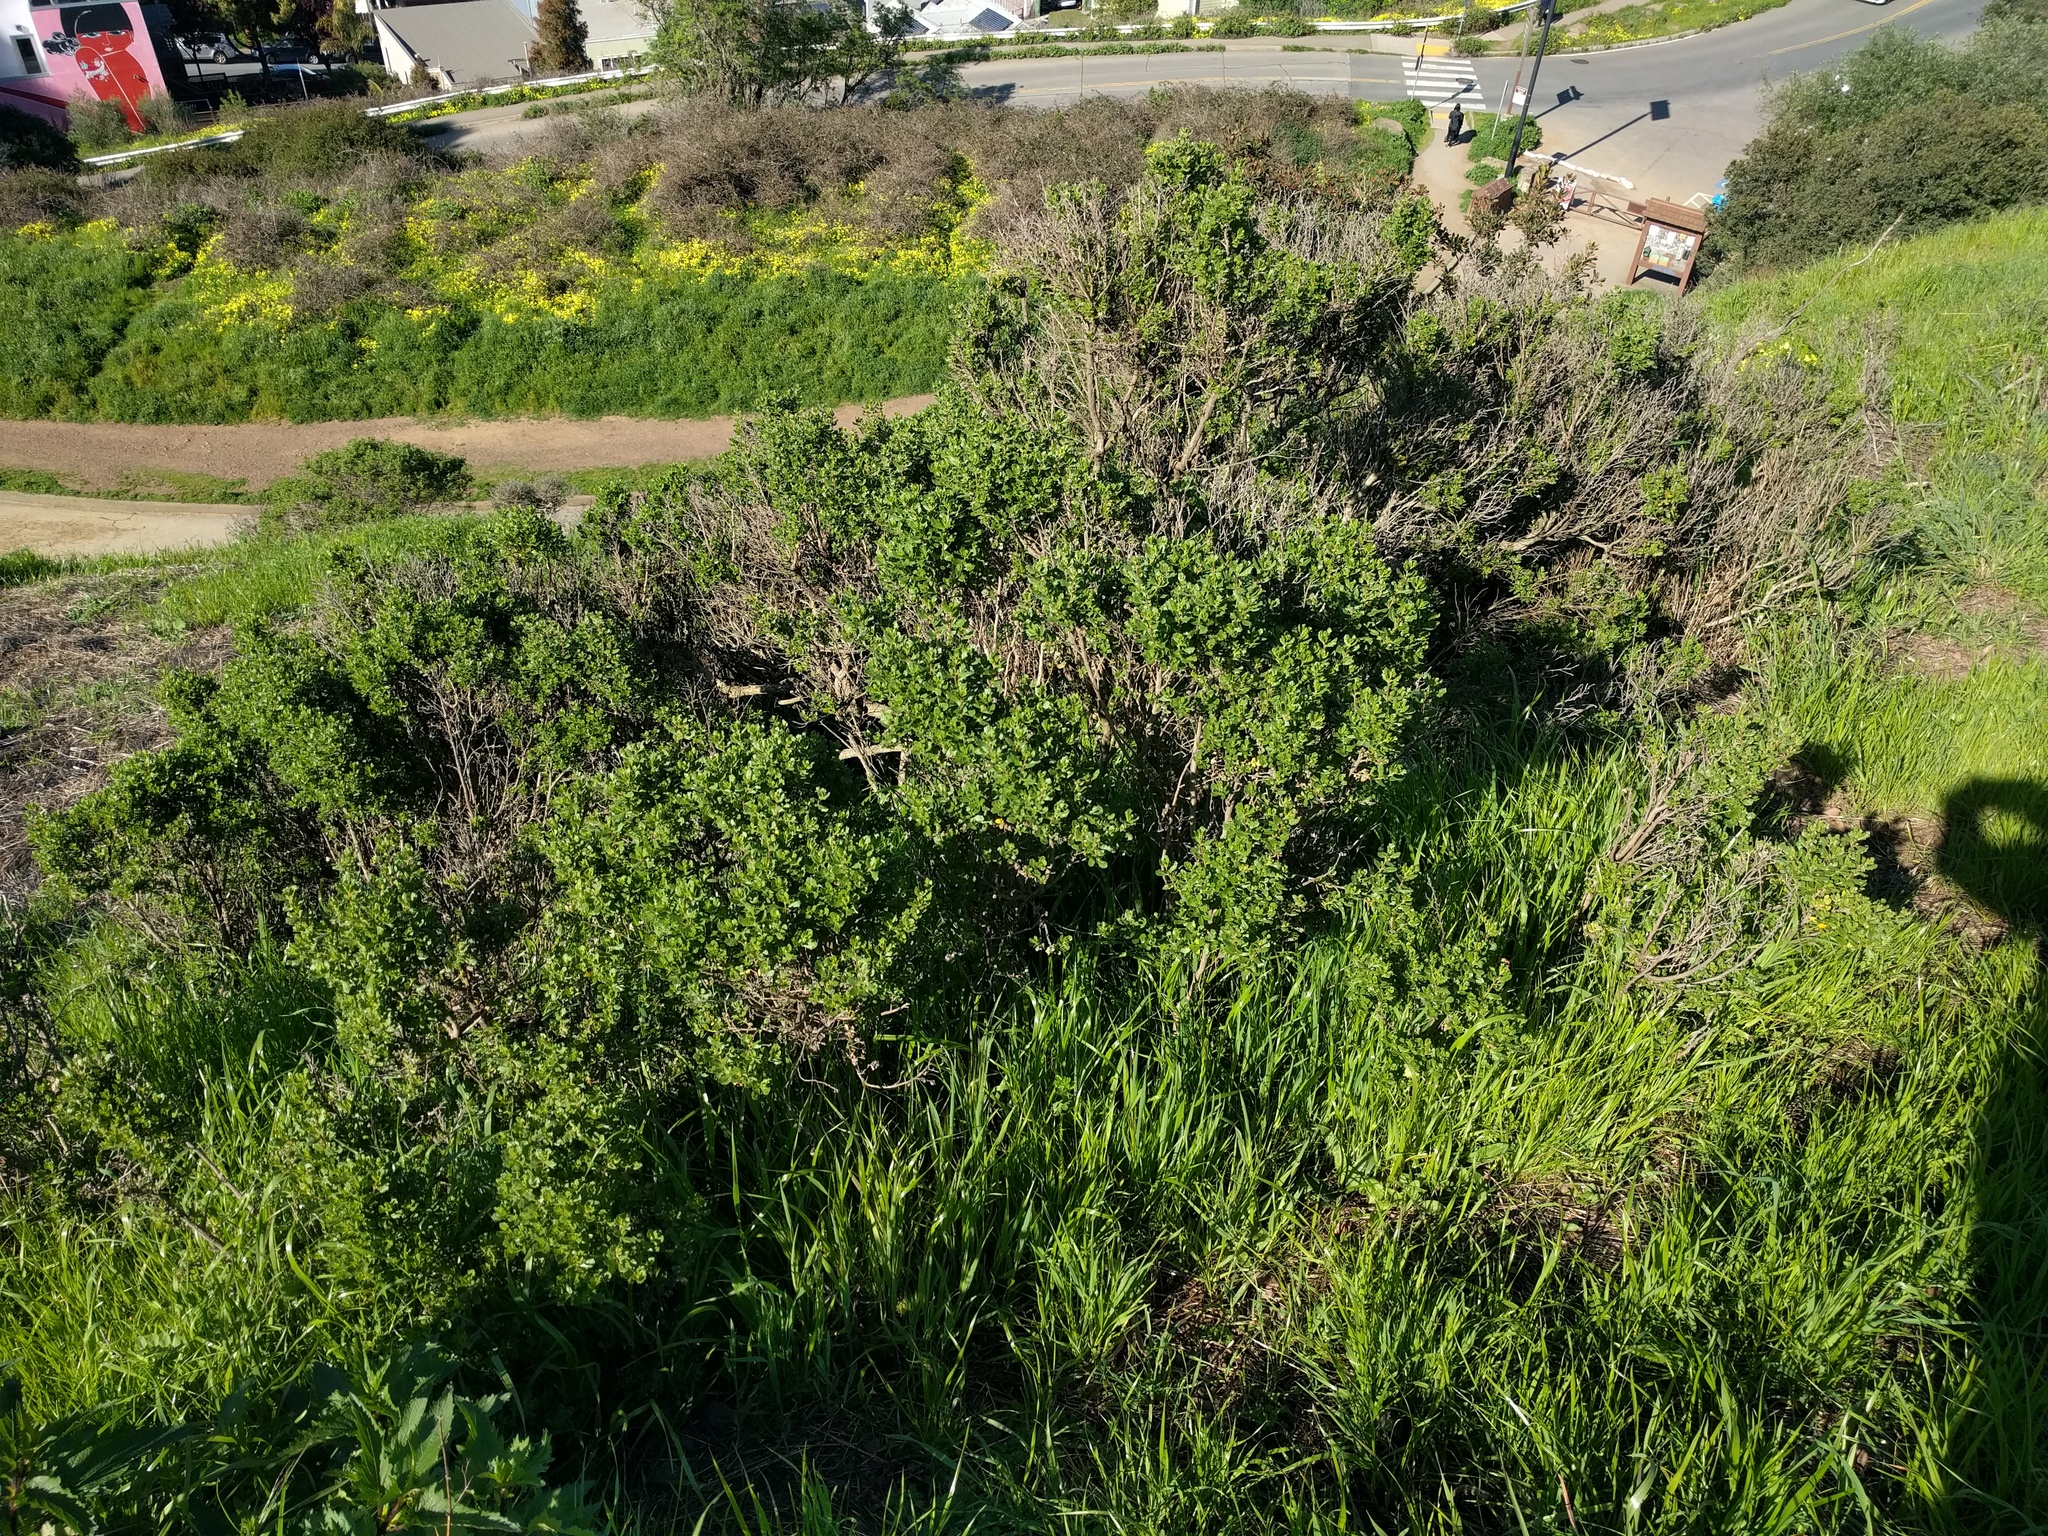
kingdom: Plantae
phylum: Tracheophyta
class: Magnoliopsida
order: Asterales
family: Asteraceae
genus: Baccharis
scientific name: Baccharis pilularis
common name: Coyotebrush
